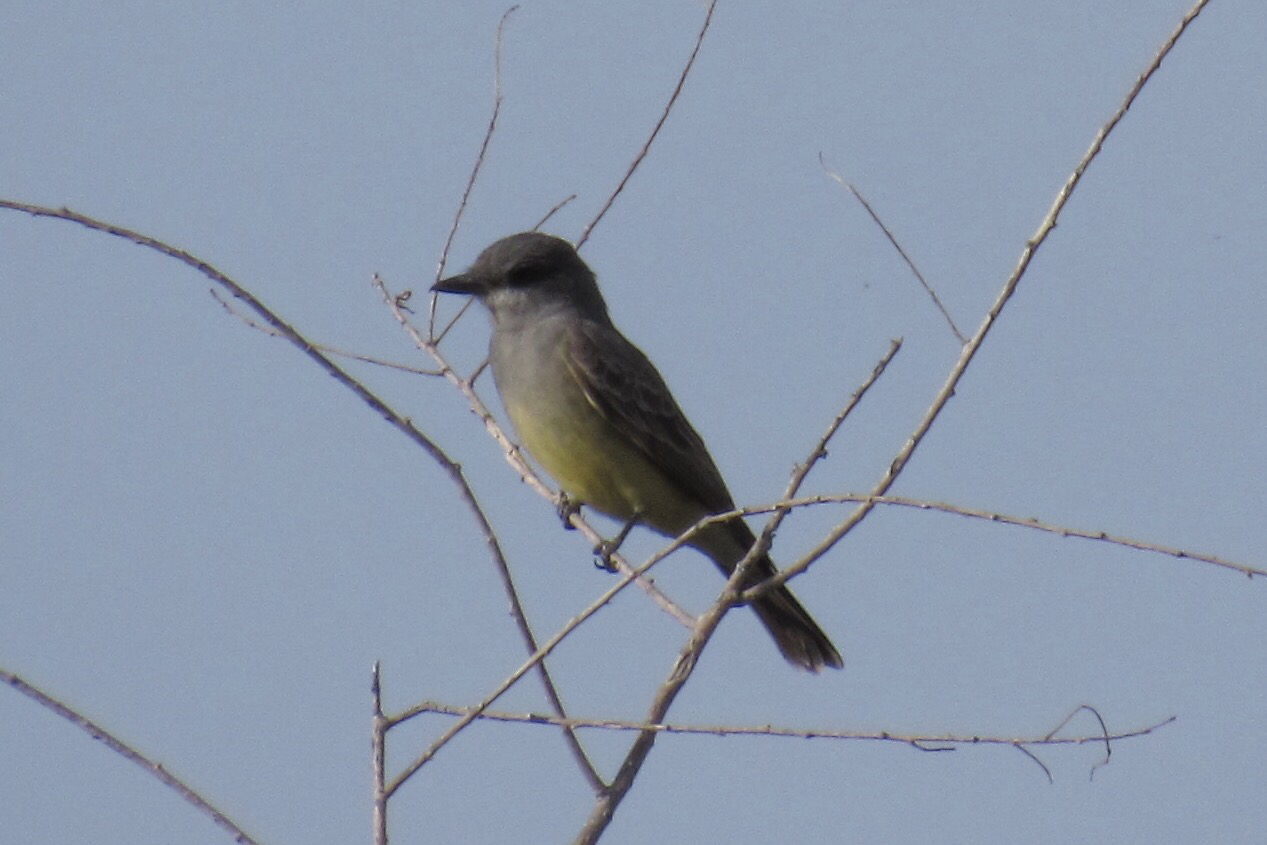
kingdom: Animalia
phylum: Chordata
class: Aves
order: Passeriformes
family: Tyrannidae
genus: Tyrannus
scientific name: Tyrannus vociferans
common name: Cassin's kingbird
